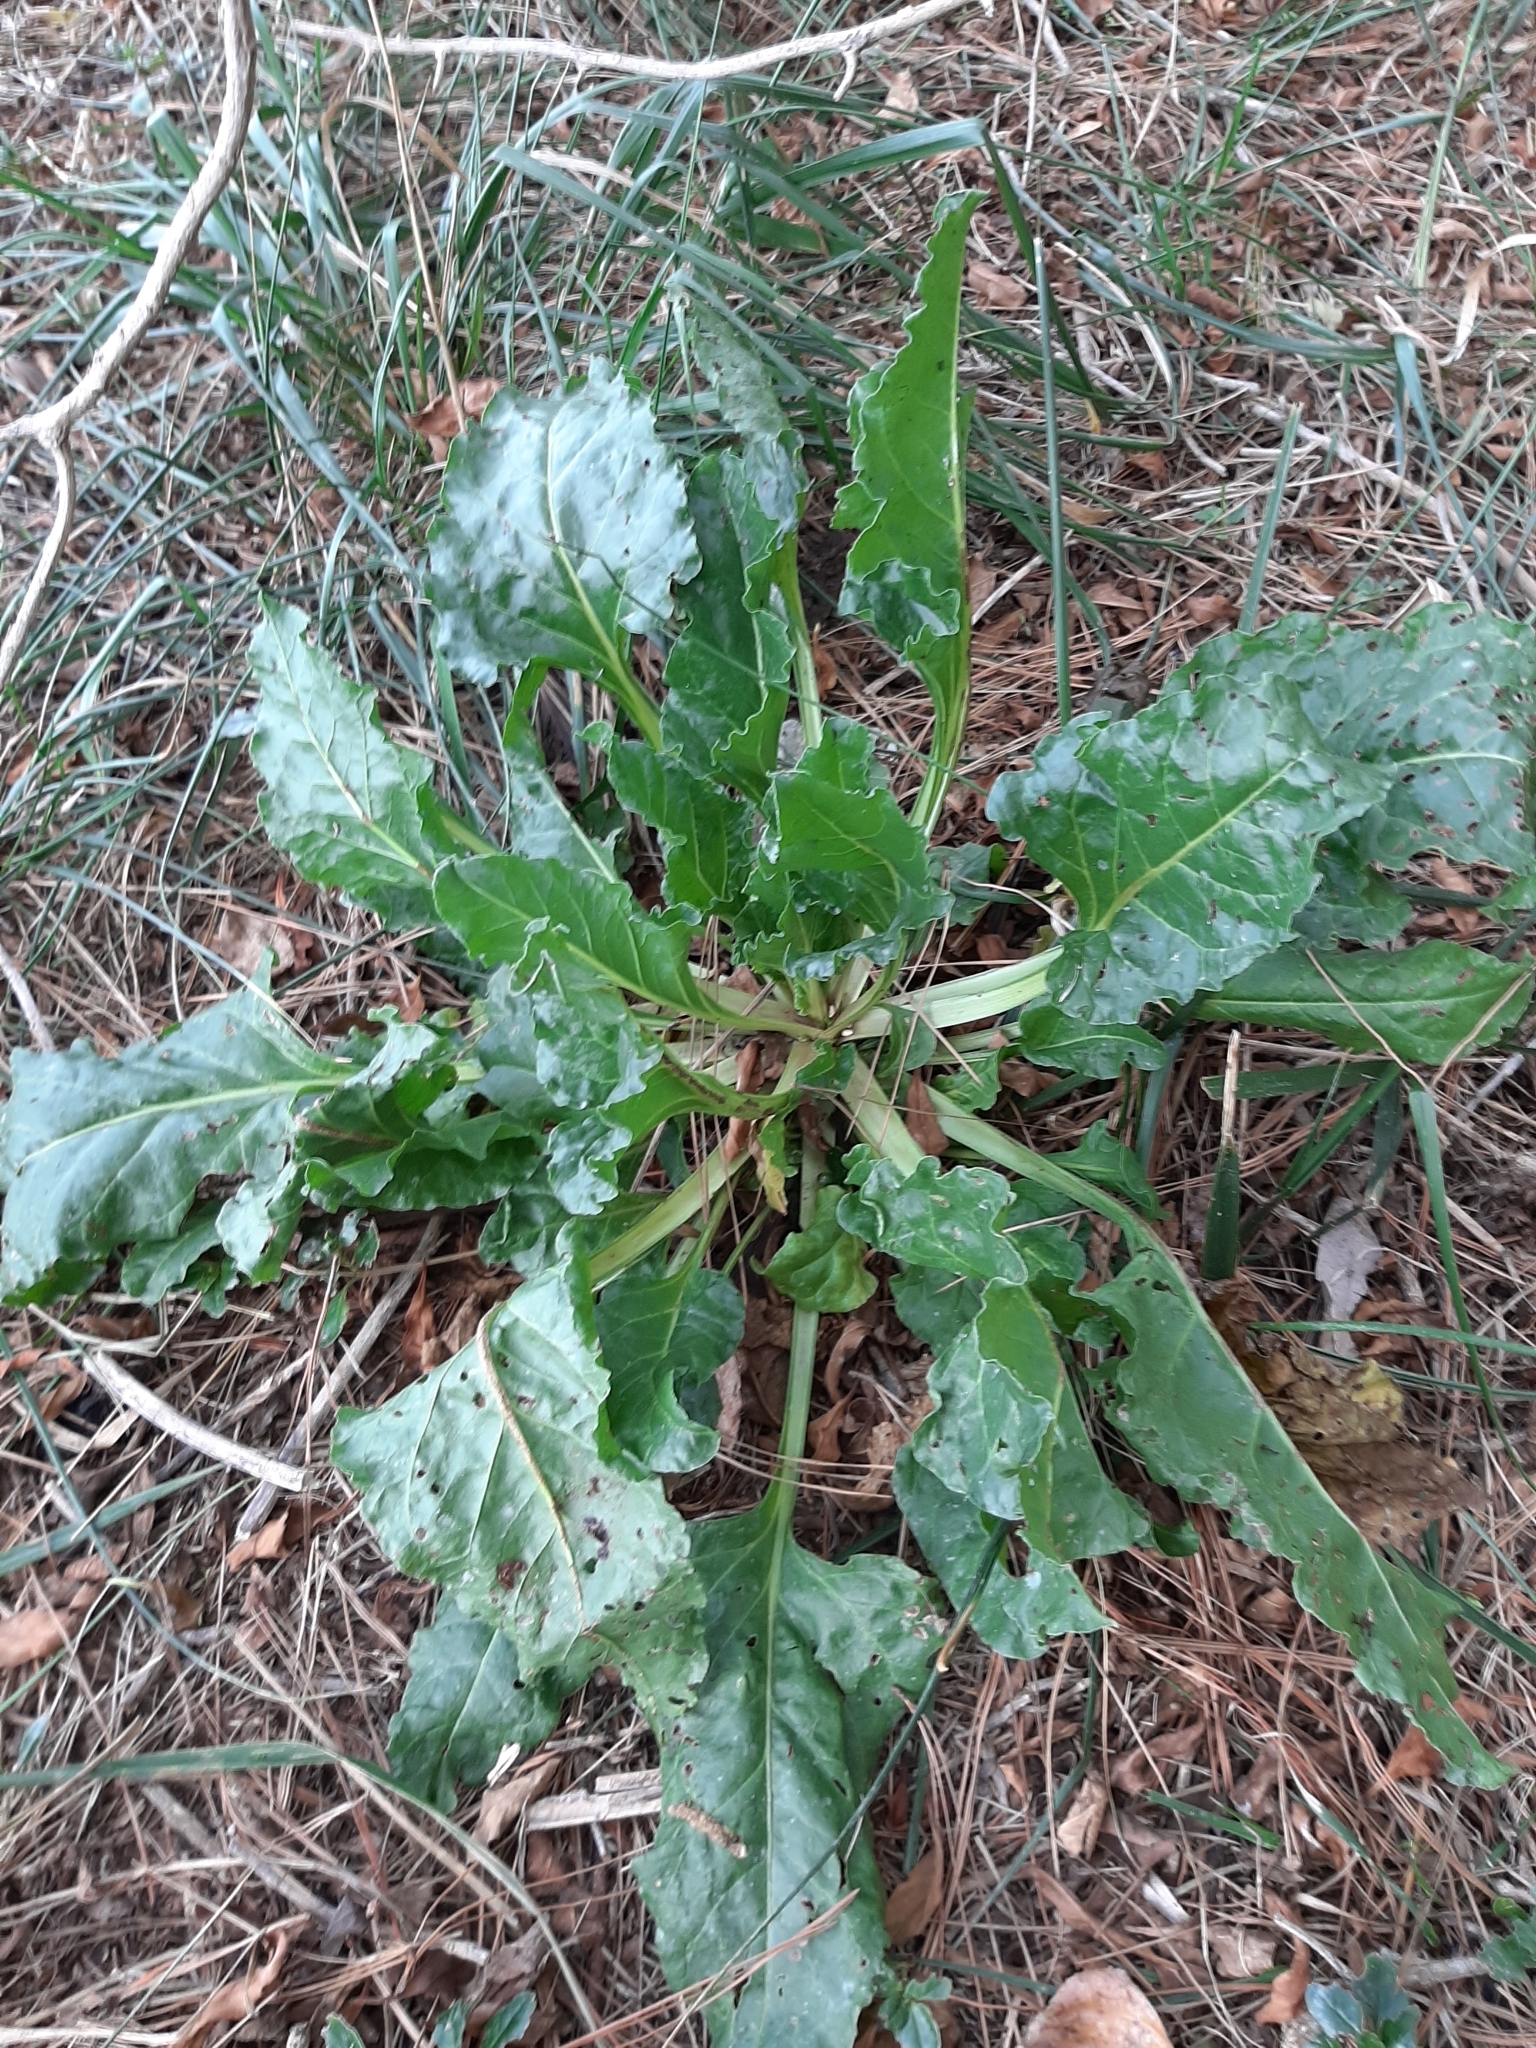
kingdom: Plantae
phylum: Tracheophyta
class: Magnoliopsida
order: Caryophyllales
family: Amaranthaceae
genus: Beta
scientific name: Beta vulgaris
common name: Beet
